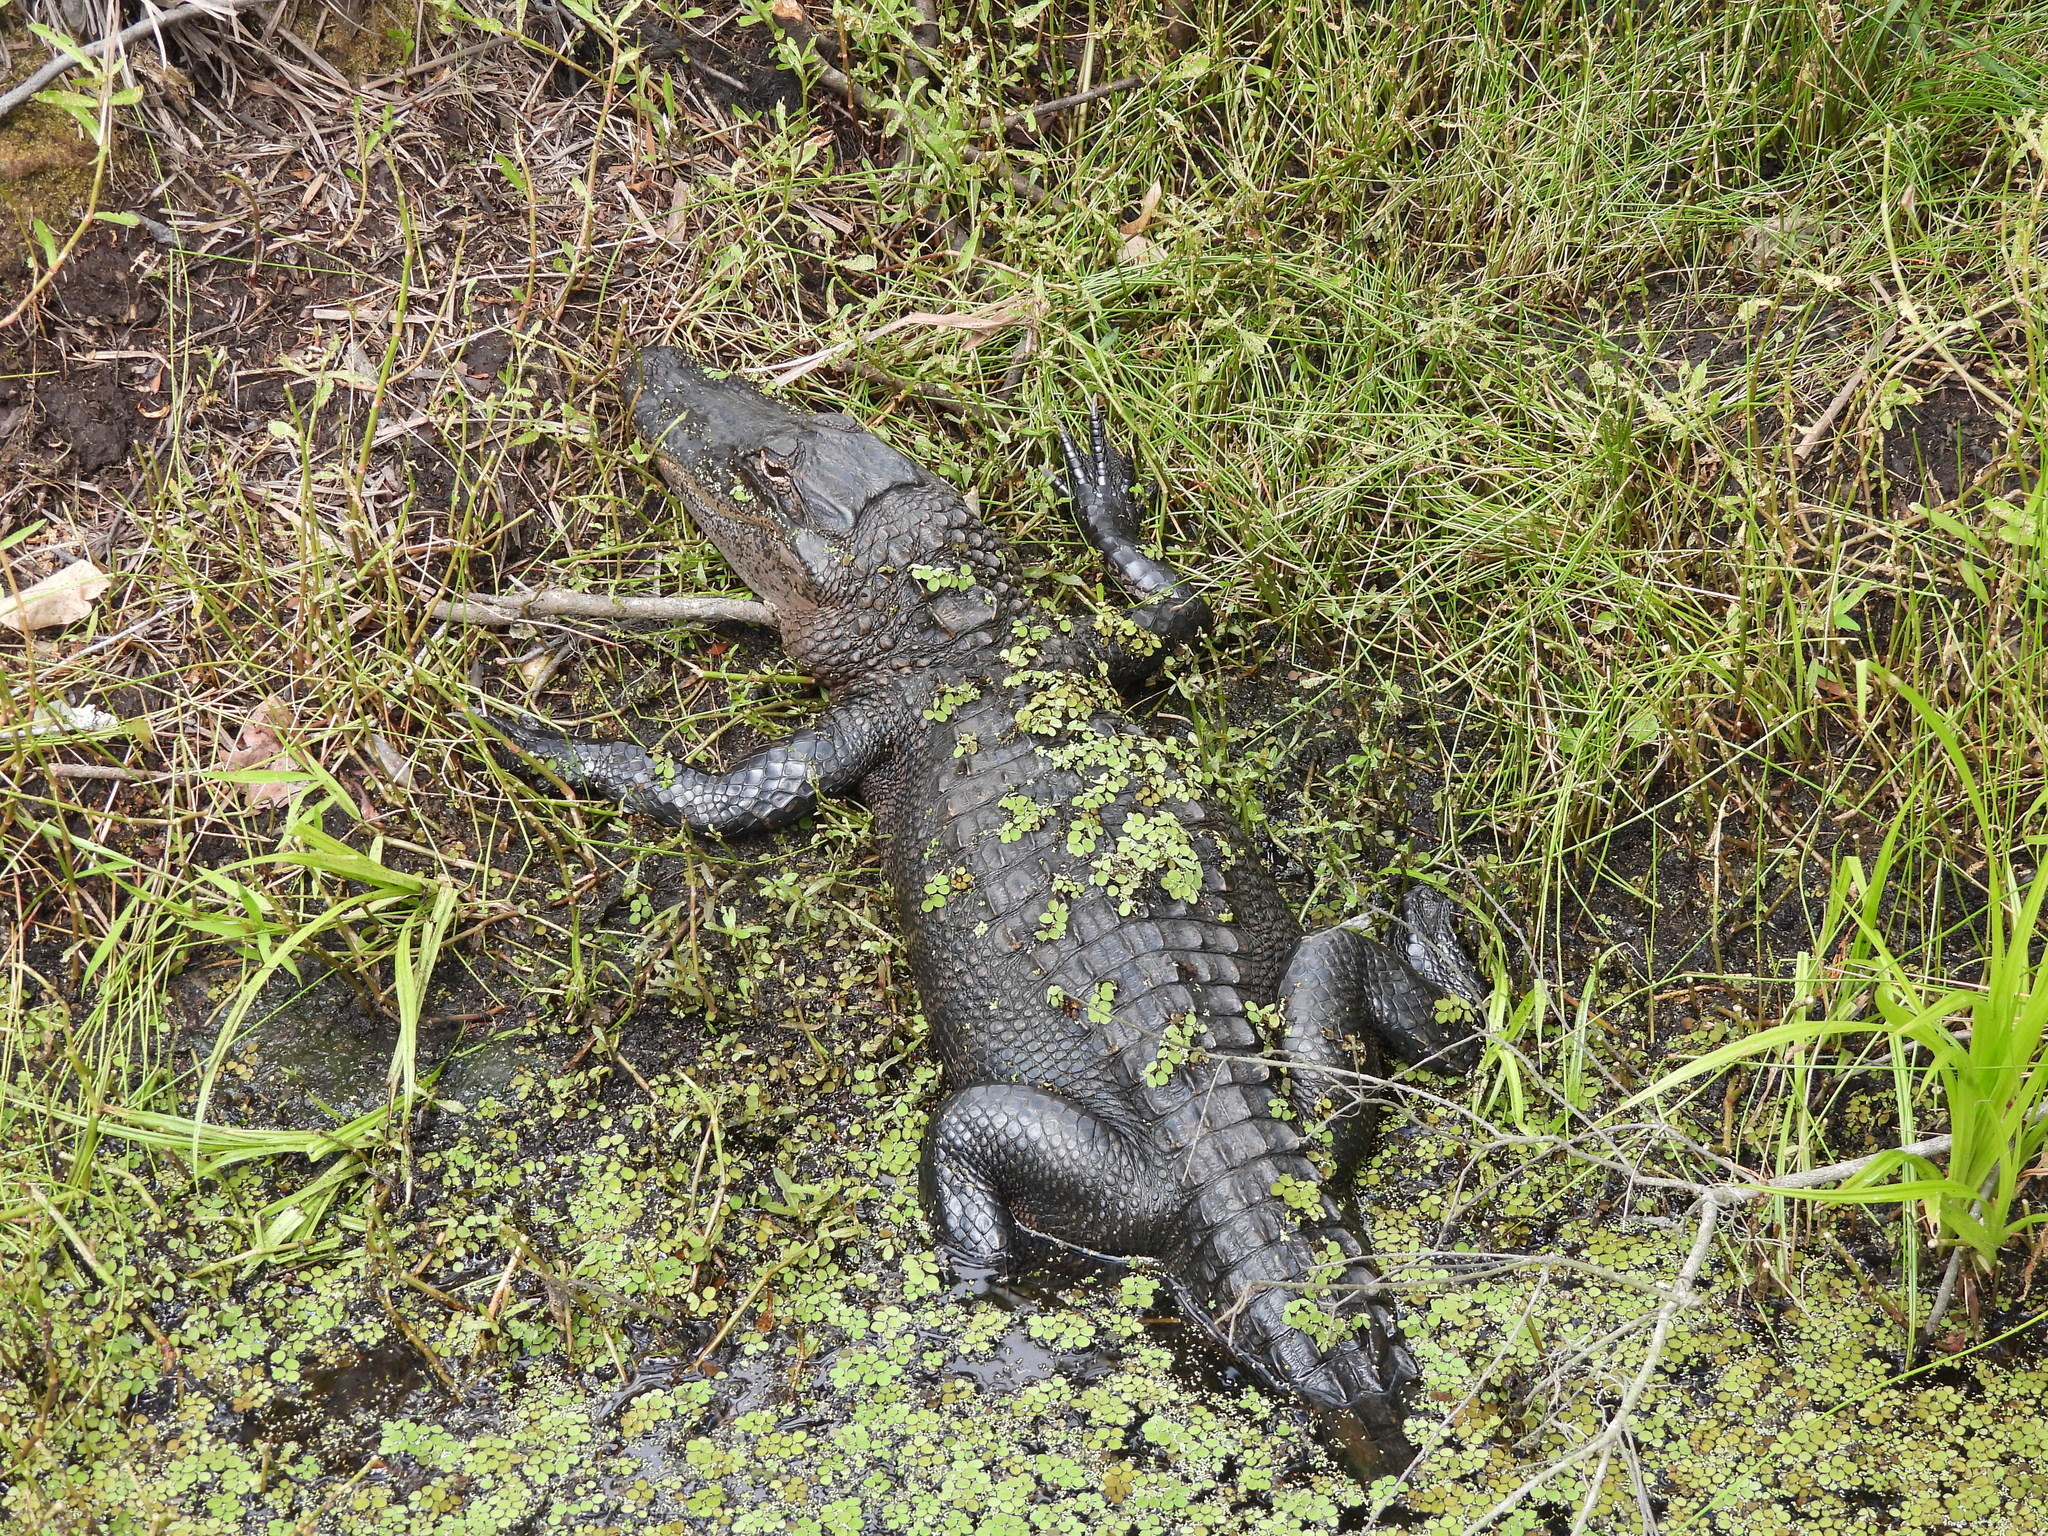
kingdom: Animalia
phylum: Chordata
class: Crocodylia
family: Alligatoridae
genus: Alligator
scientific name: Alligator mississippiensis
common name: American alligator
